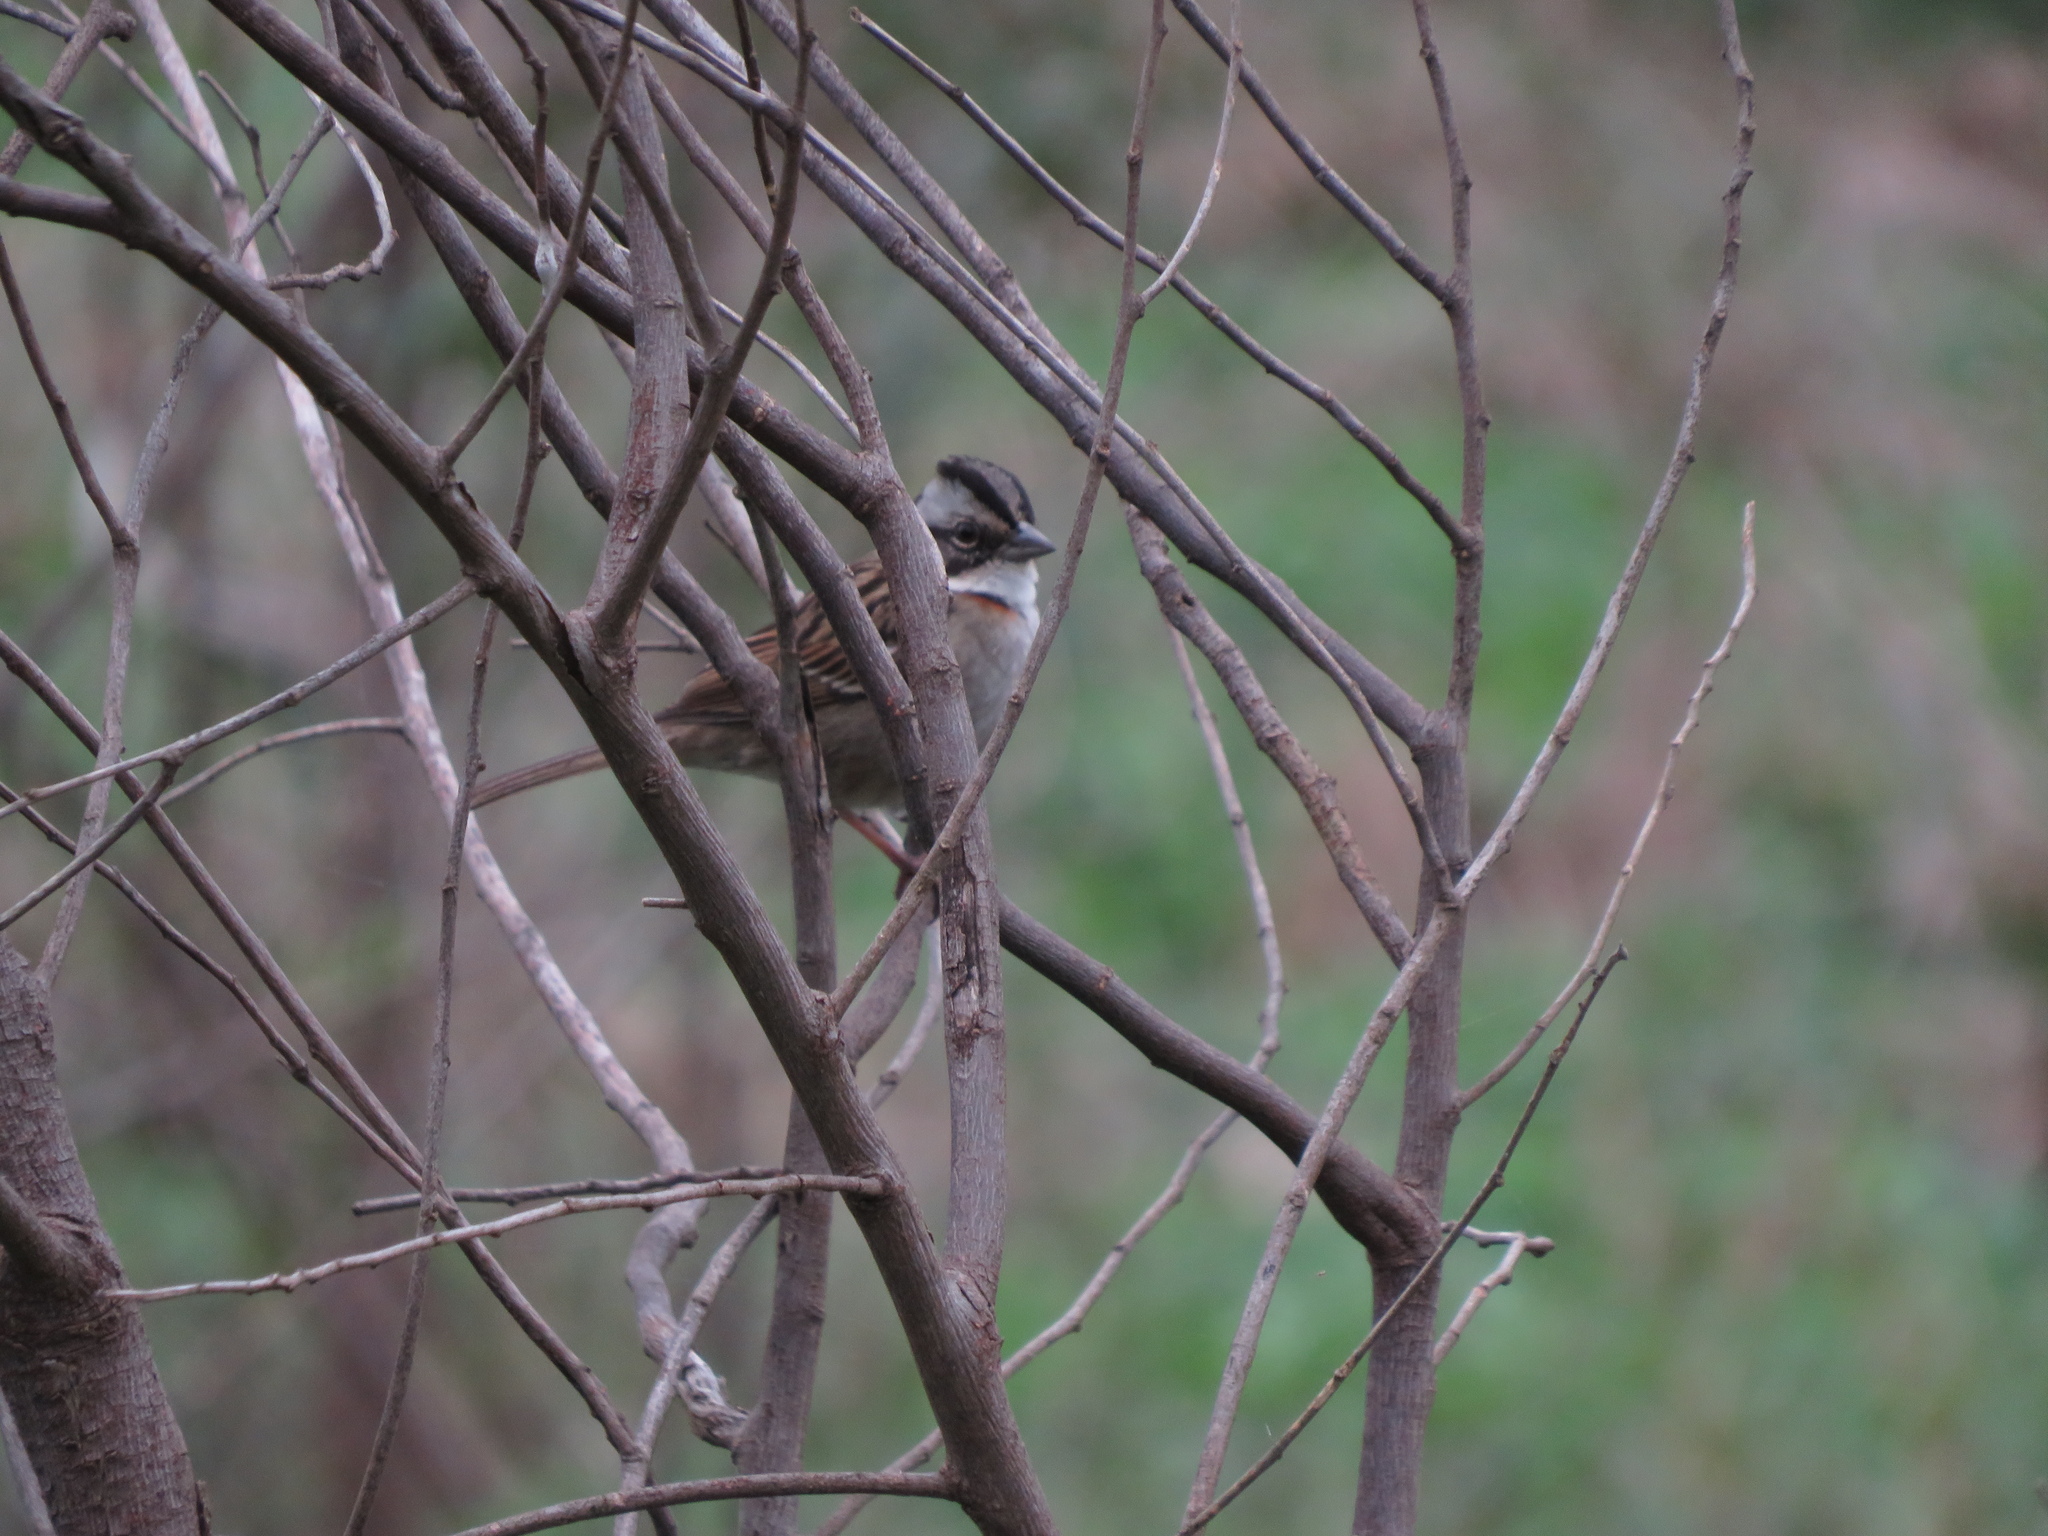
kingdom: Animalia
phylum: Chordata
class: Aves
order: Passeriformes
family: Passerellidae
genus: Zonotrichia
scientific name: Zonotrichia capensis
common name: Rufous-collared sparrow
